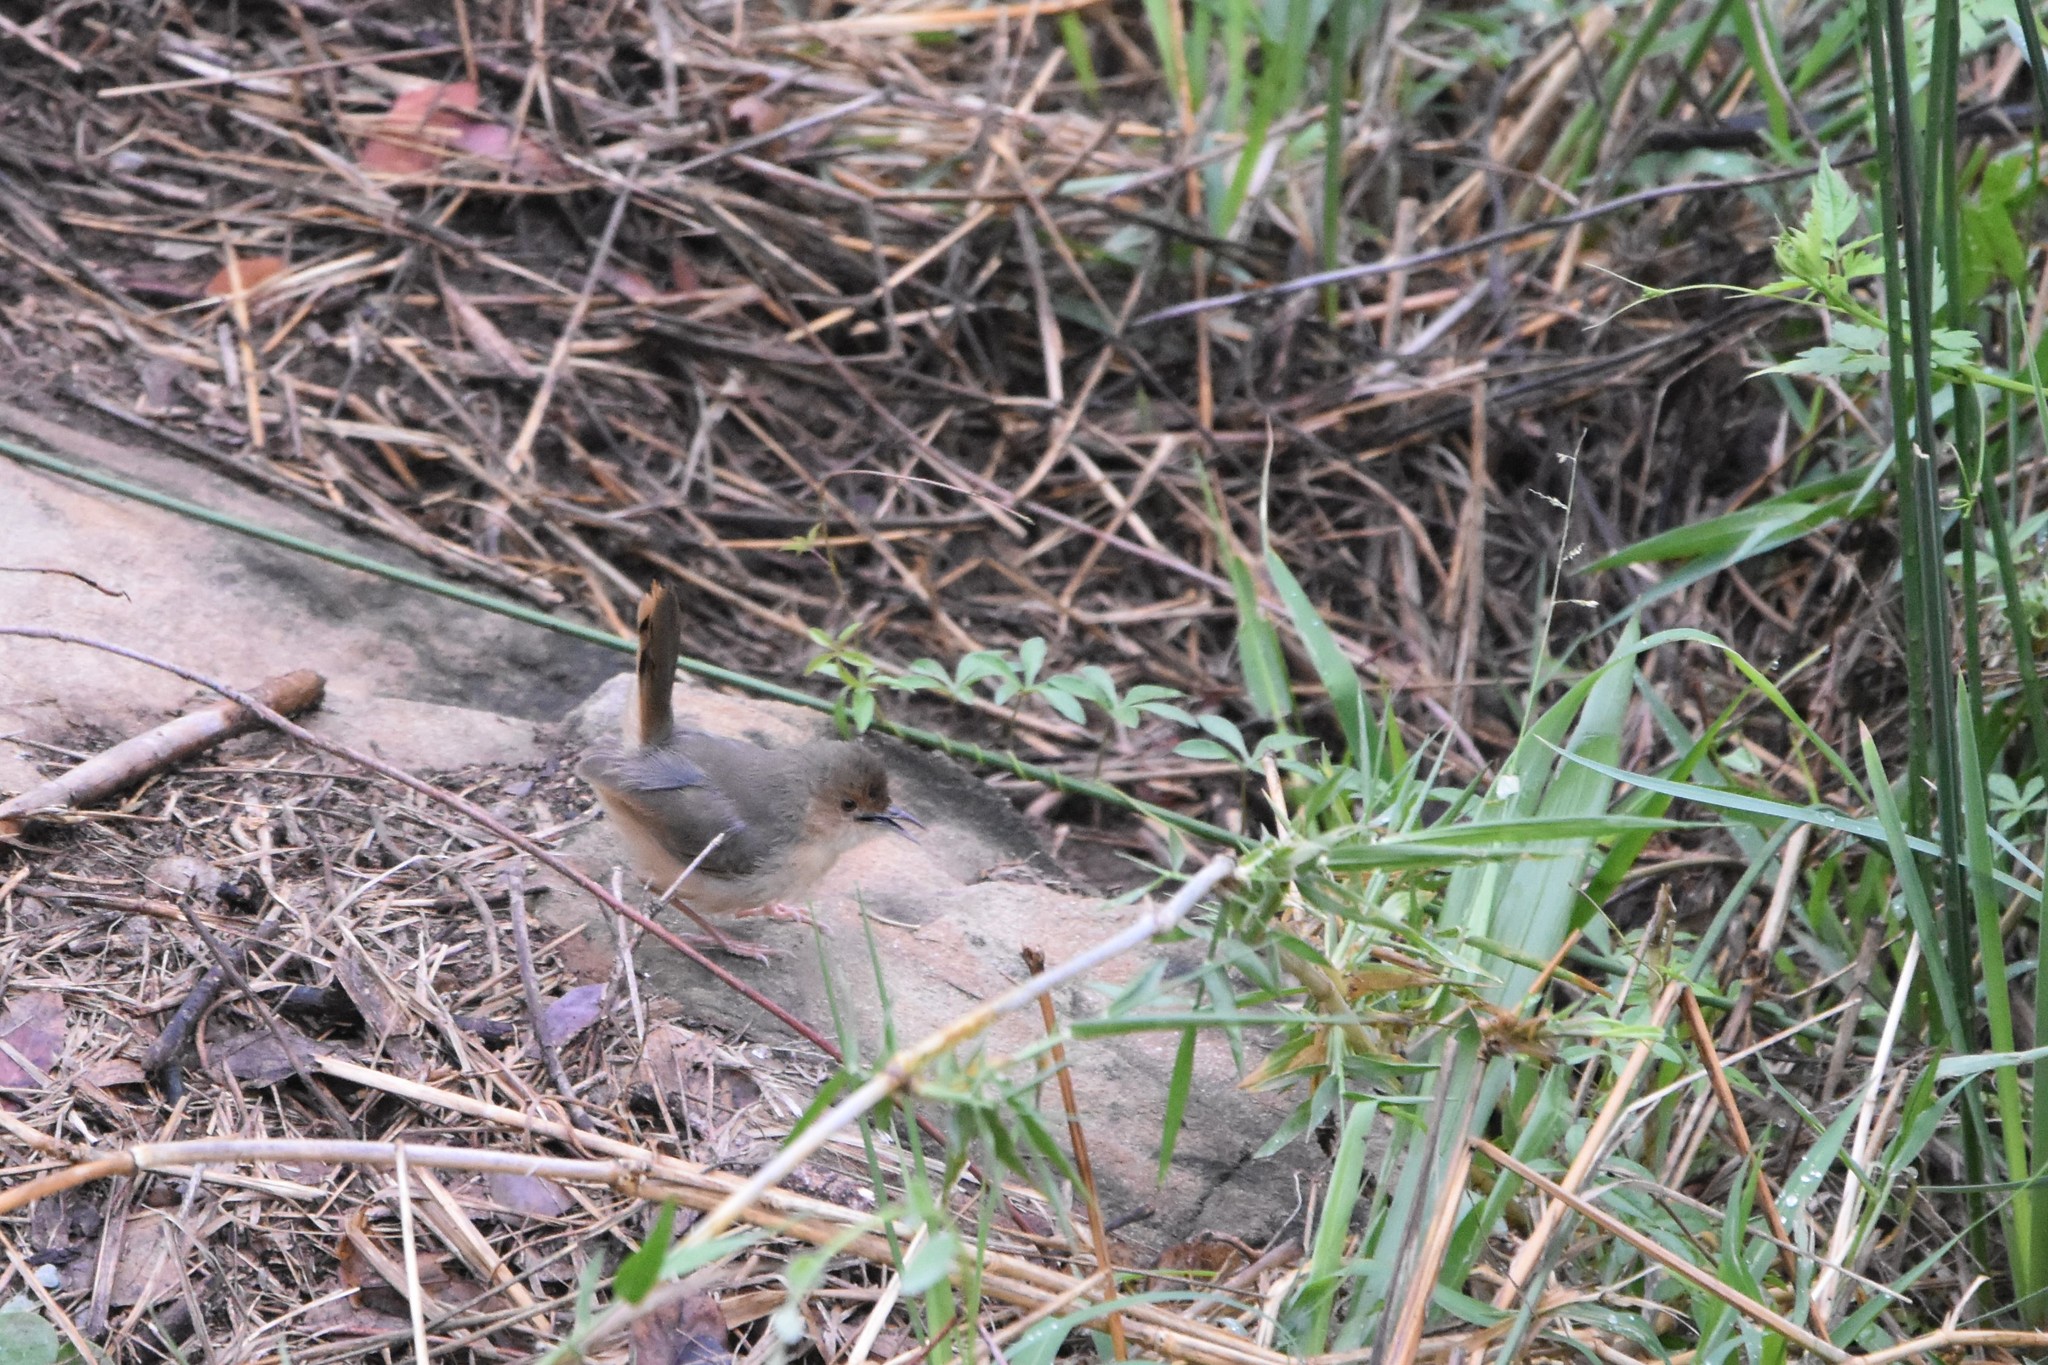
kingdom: Animalia
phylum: Chordata
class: Aves
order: Passeriformes
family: Cisticolidae
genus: Cisticola
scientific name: Cisticola erythrops
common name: Red-faced cisticola
